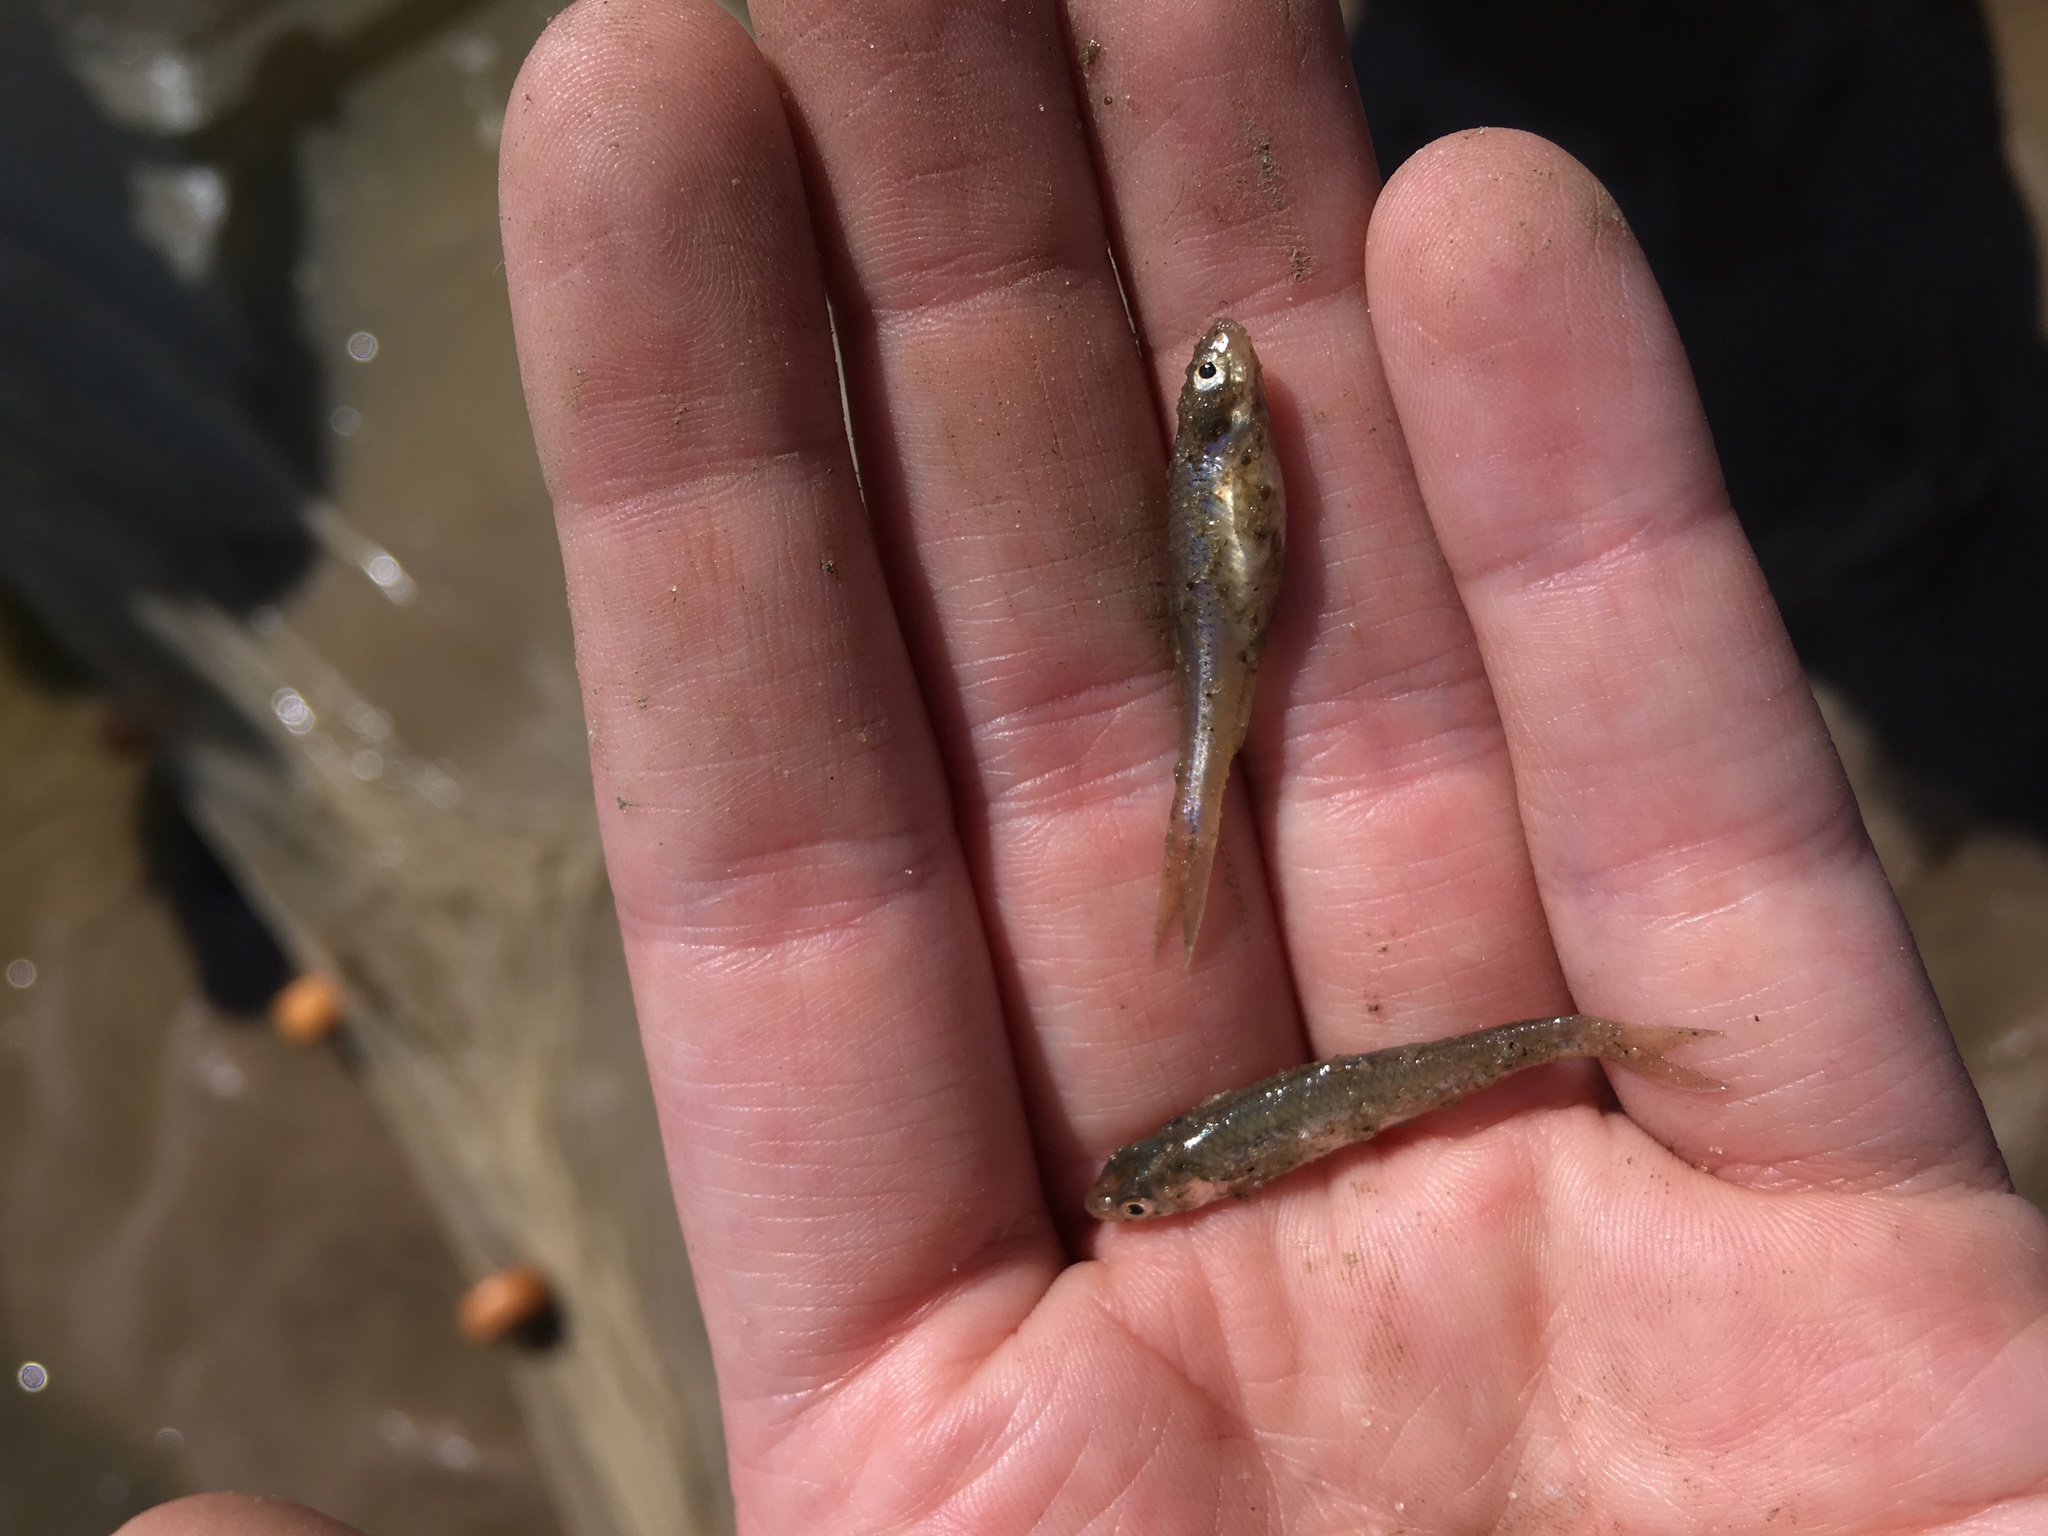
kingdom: Animalia
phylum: Chordata
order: Cypriniformes
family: Cyprinidae
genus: Ericymba
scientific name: Ericymba
